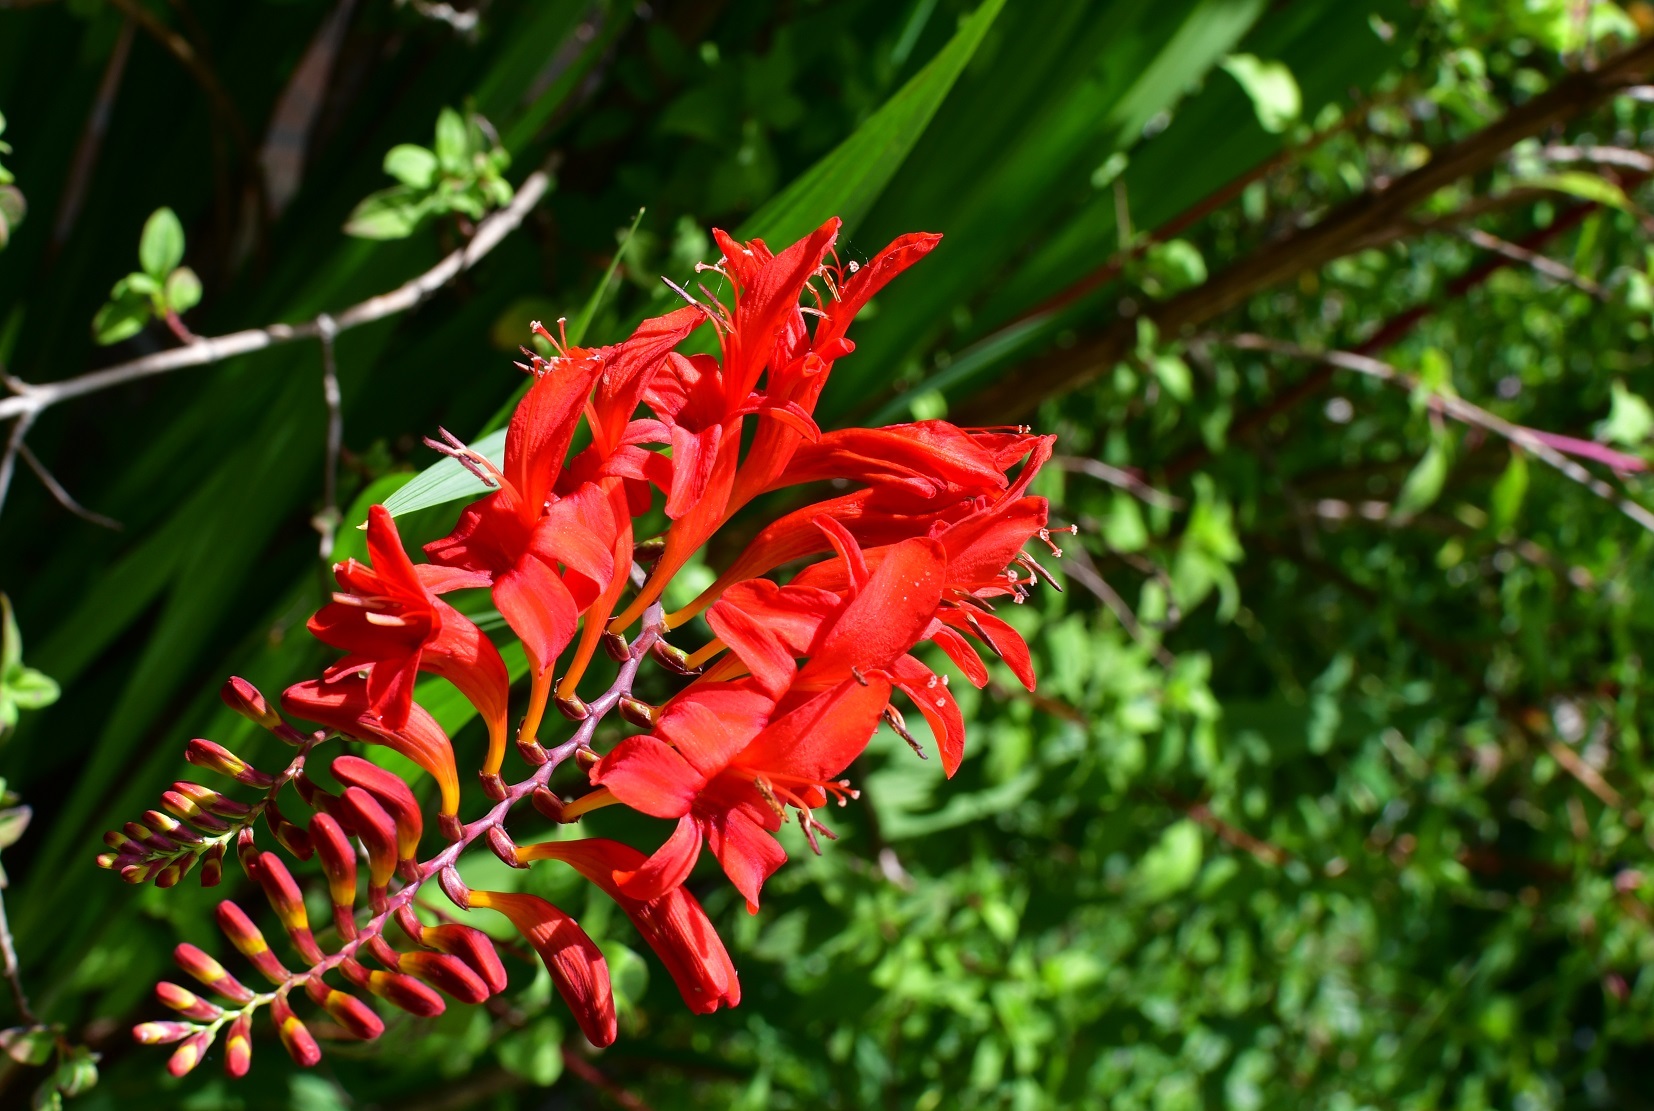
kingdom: Plantae
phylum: Tracheophyta
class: Liliopsida
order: Asparagales
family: Iridaceae
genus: Crocosmia
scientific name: Crocosmia
